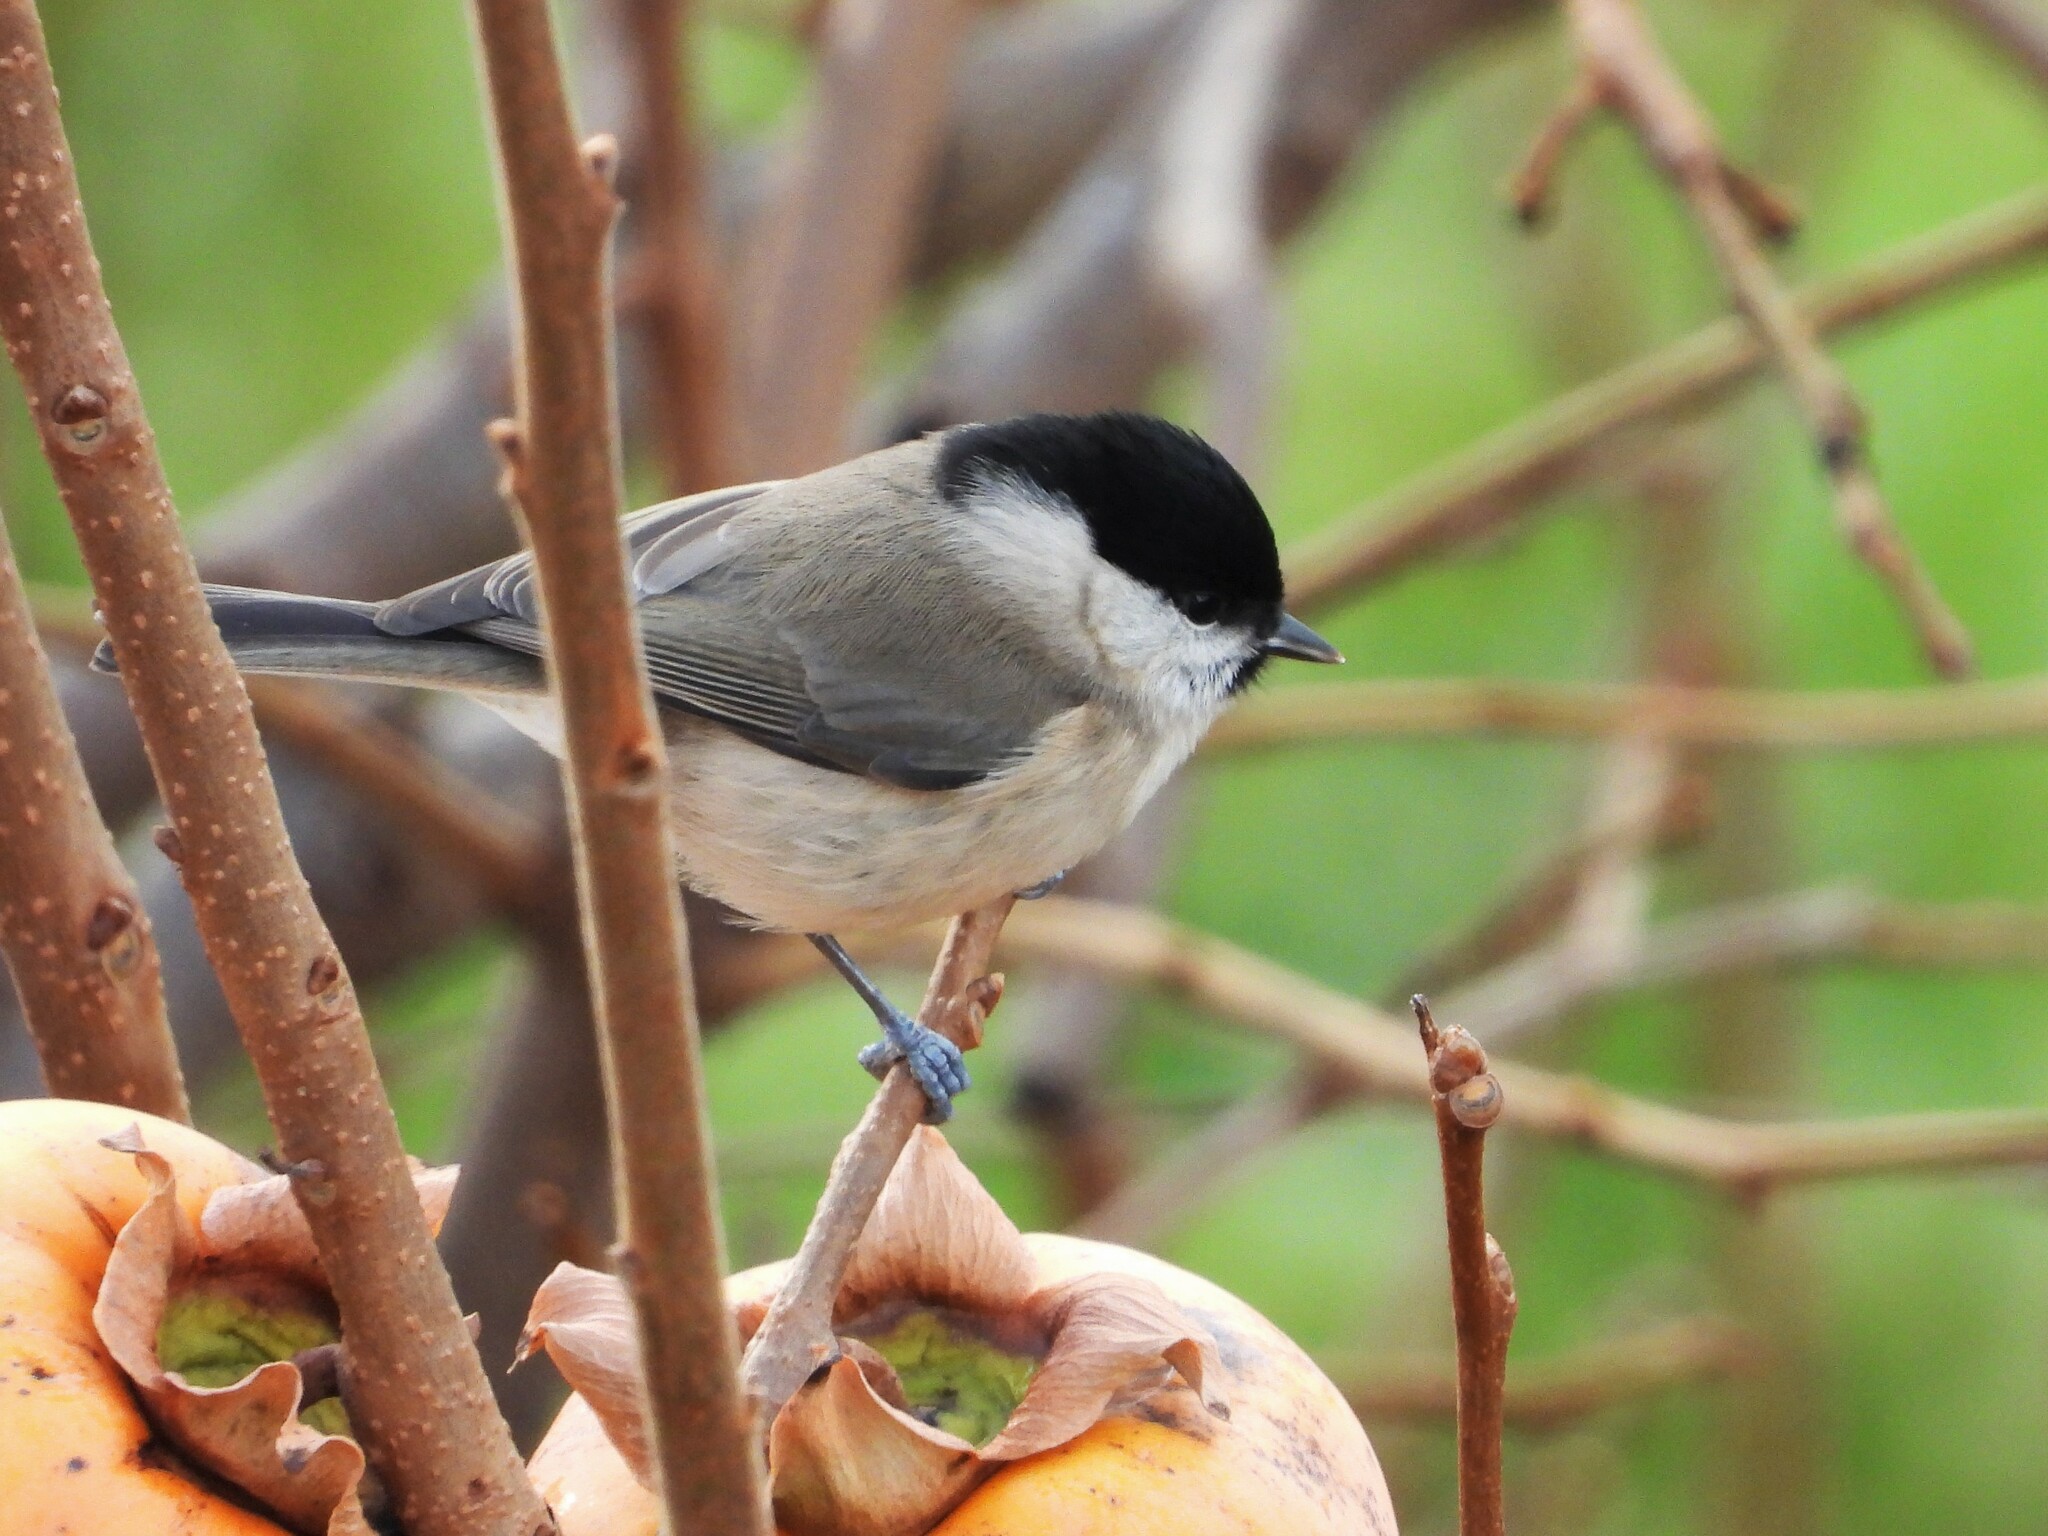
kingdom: Animalia
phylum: Chordata
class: Aves
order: Passeriformes
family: Paridae
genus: Poecile
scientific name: Poecile palustris
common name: Marsh tit
